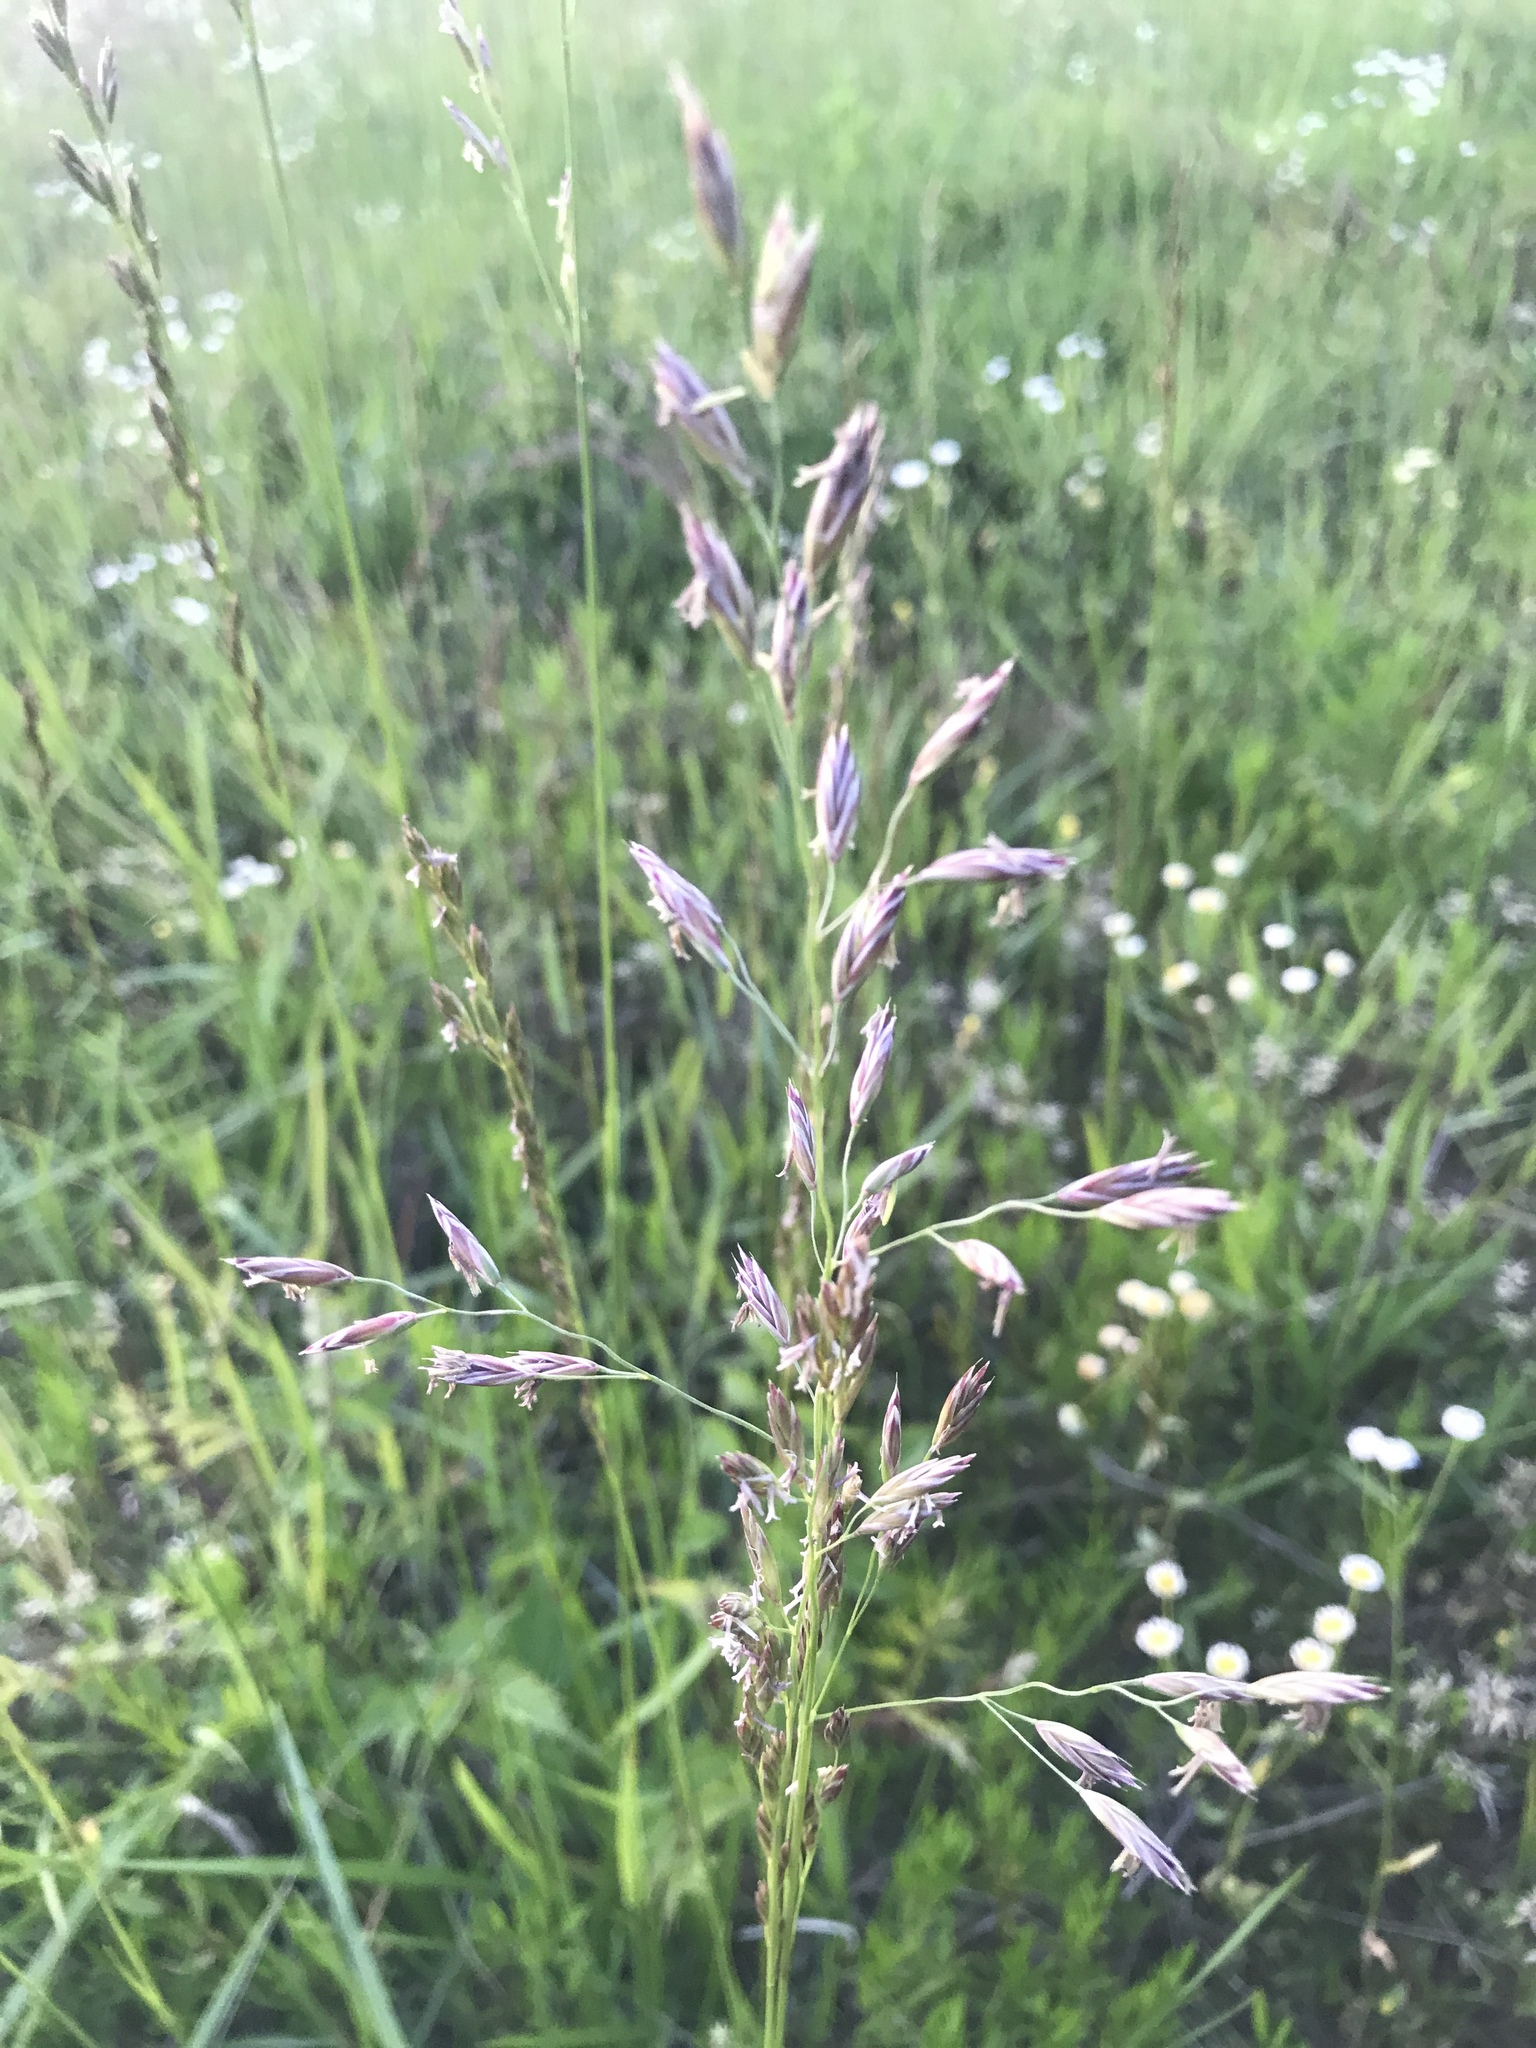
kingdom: Plantae
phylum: Tracheophyta
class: Liliopsida
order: Poales
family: Poaceae
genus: Lolium
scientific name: Lolium arundinaceum
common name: Reed fescue
